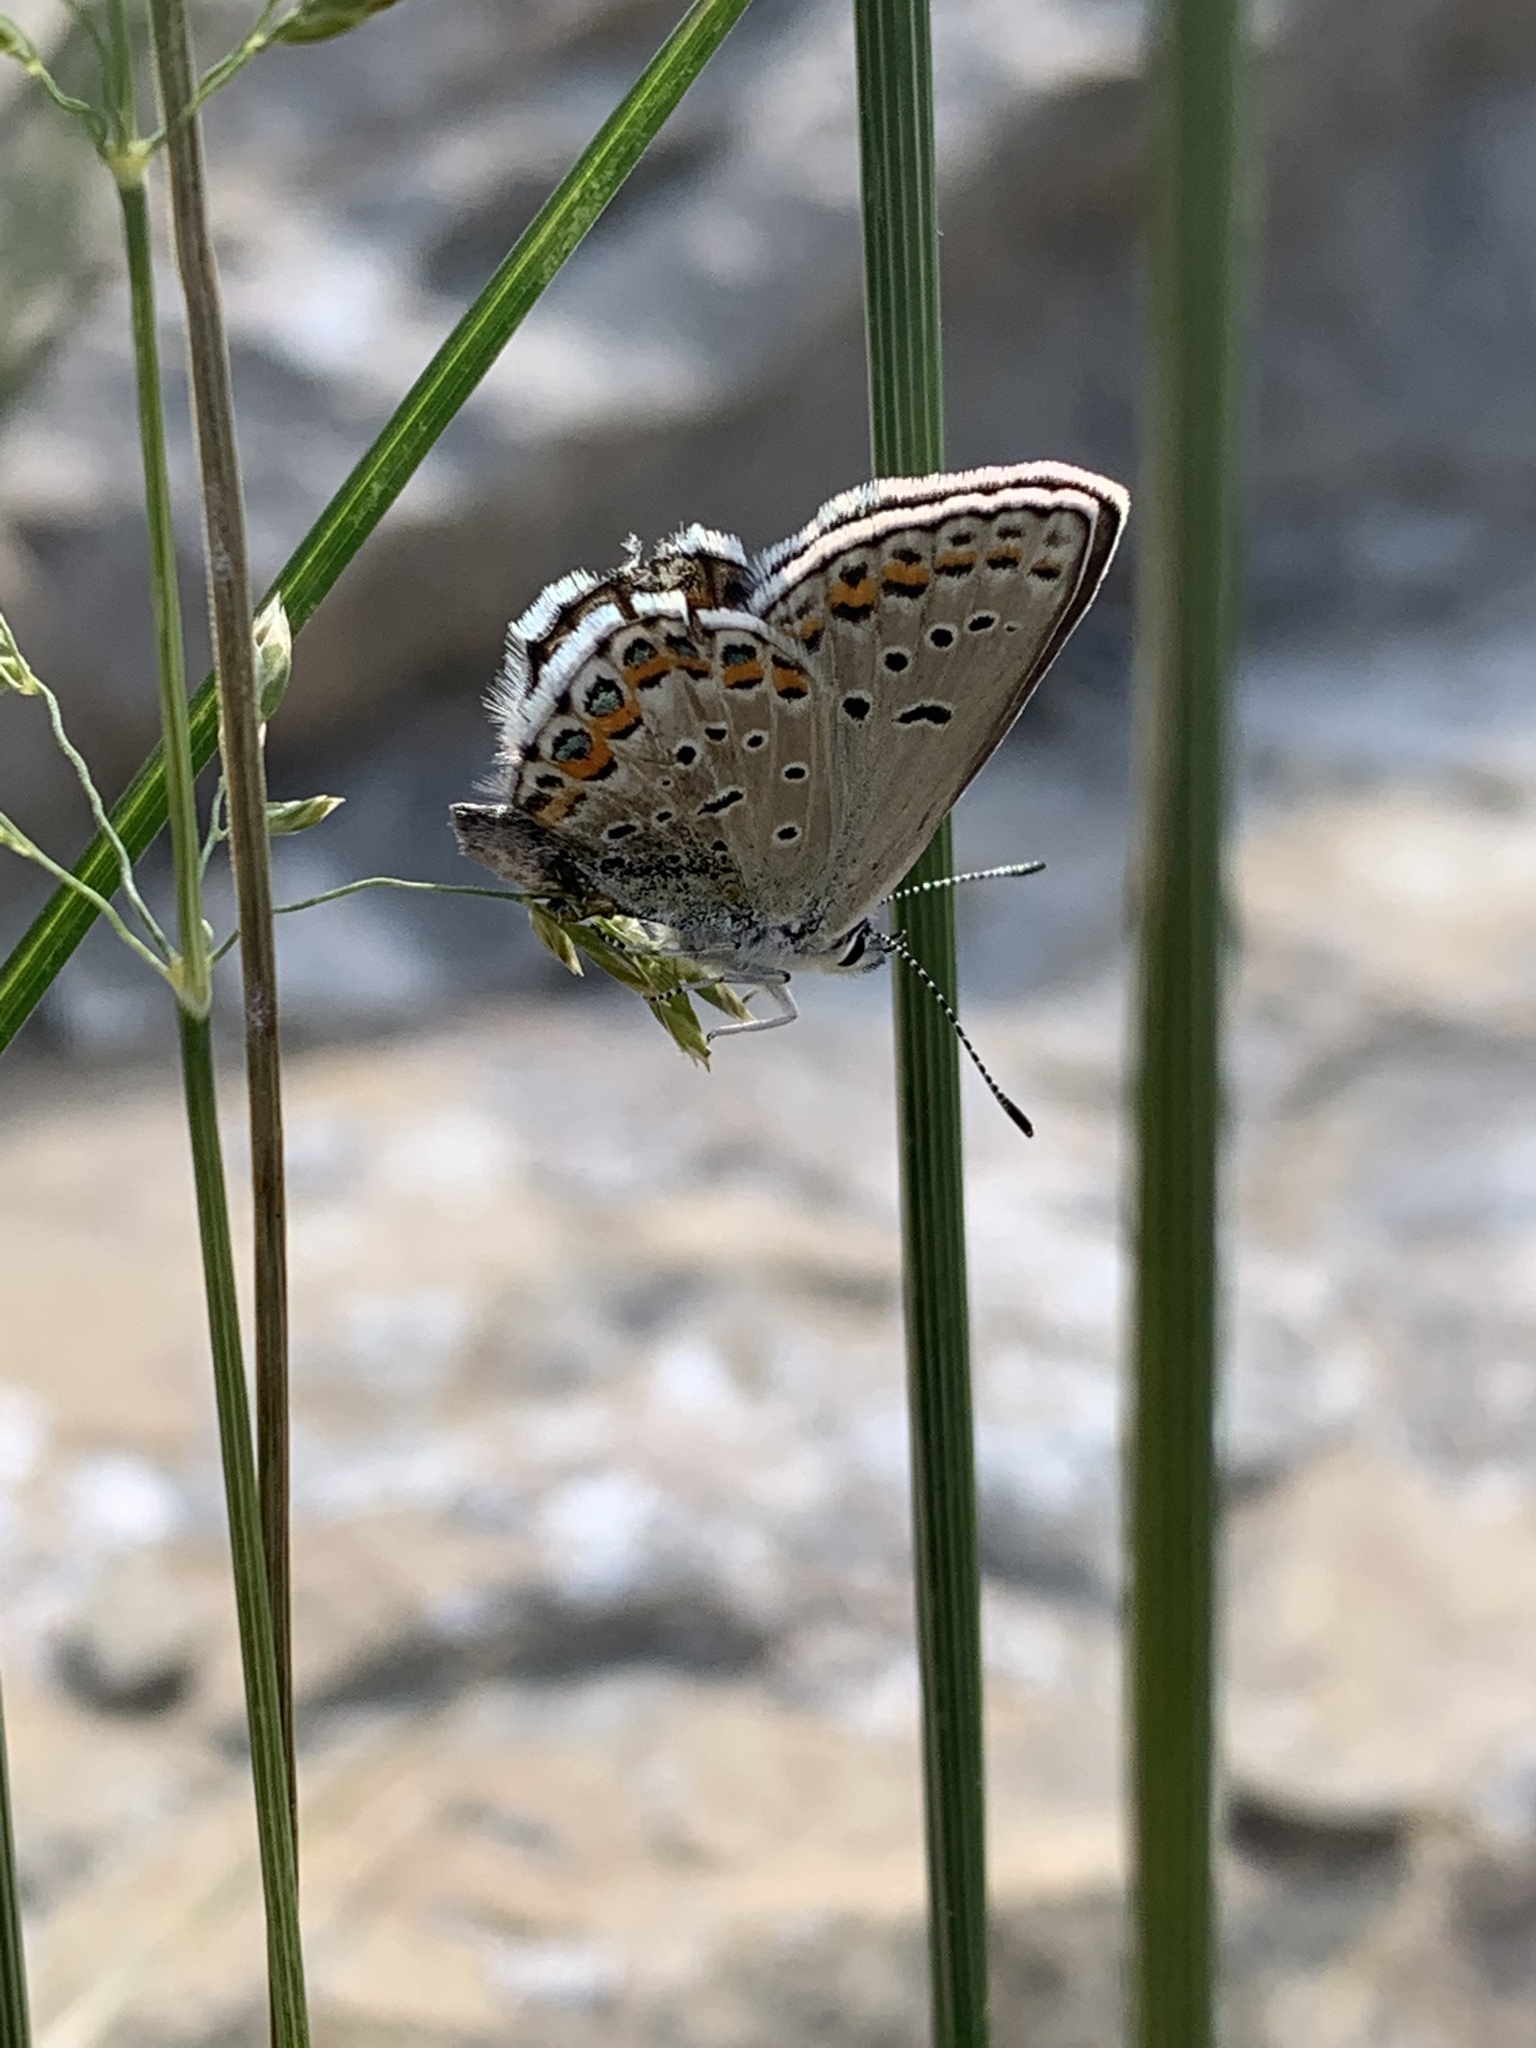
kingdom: Animalia
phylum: Arthropoda
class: Insecta
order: Lepidoptera
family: Lycaenidae
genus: Lycaeides
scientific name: Lycaeides idas
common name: Northern blue
